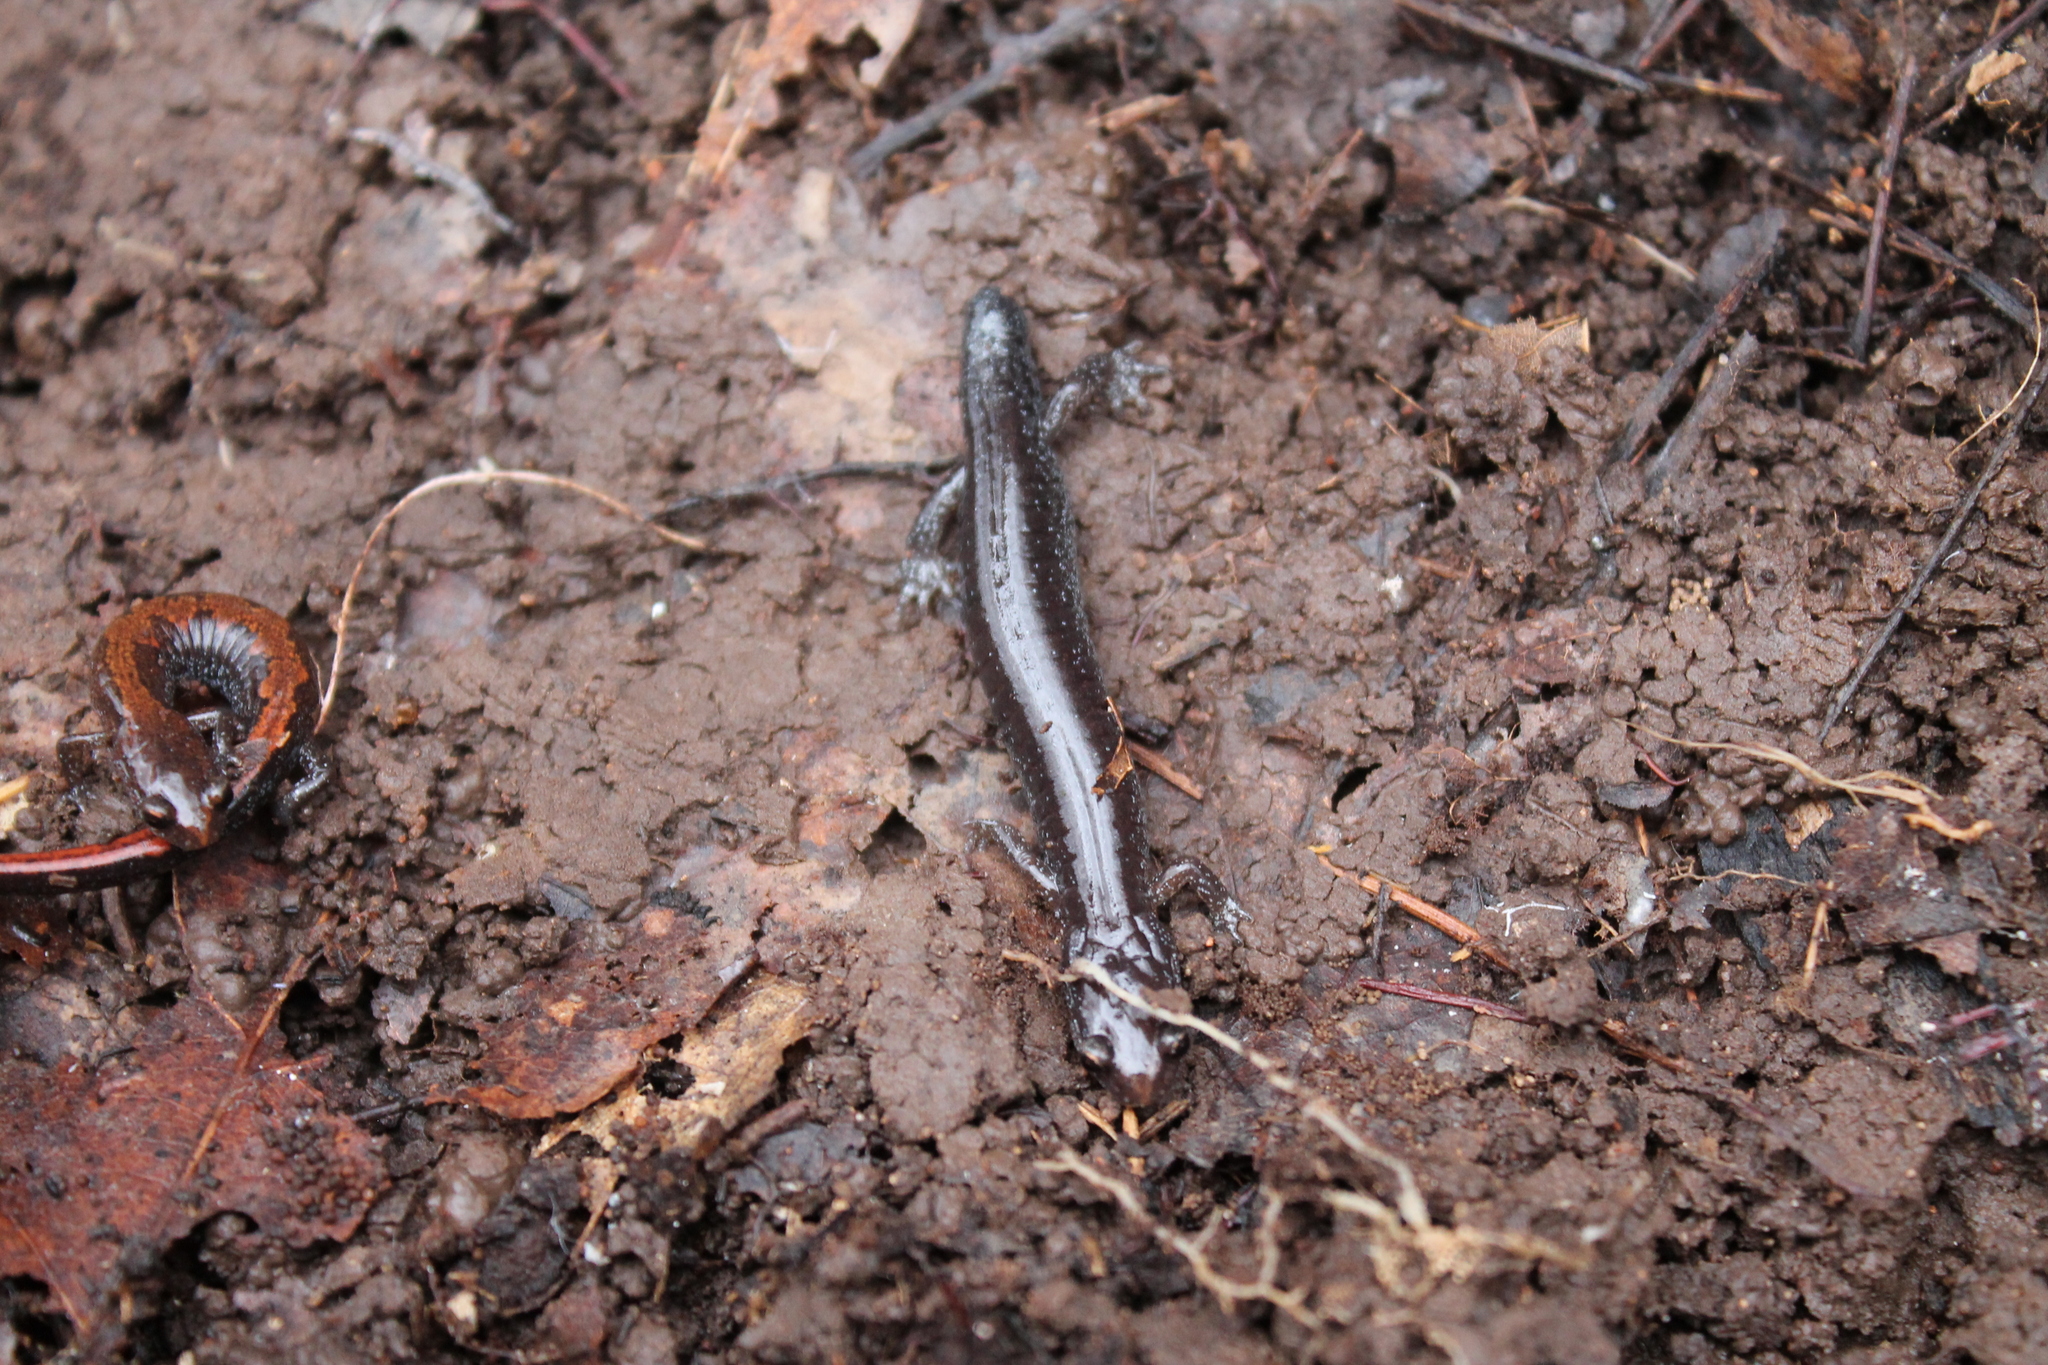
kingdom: Animalia
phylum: Chordata
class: Amphibia
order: Caudata
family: Plethodontidae
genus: Plethodon
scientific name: Plethodon dorsalis
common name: Northern zigzag salamander
